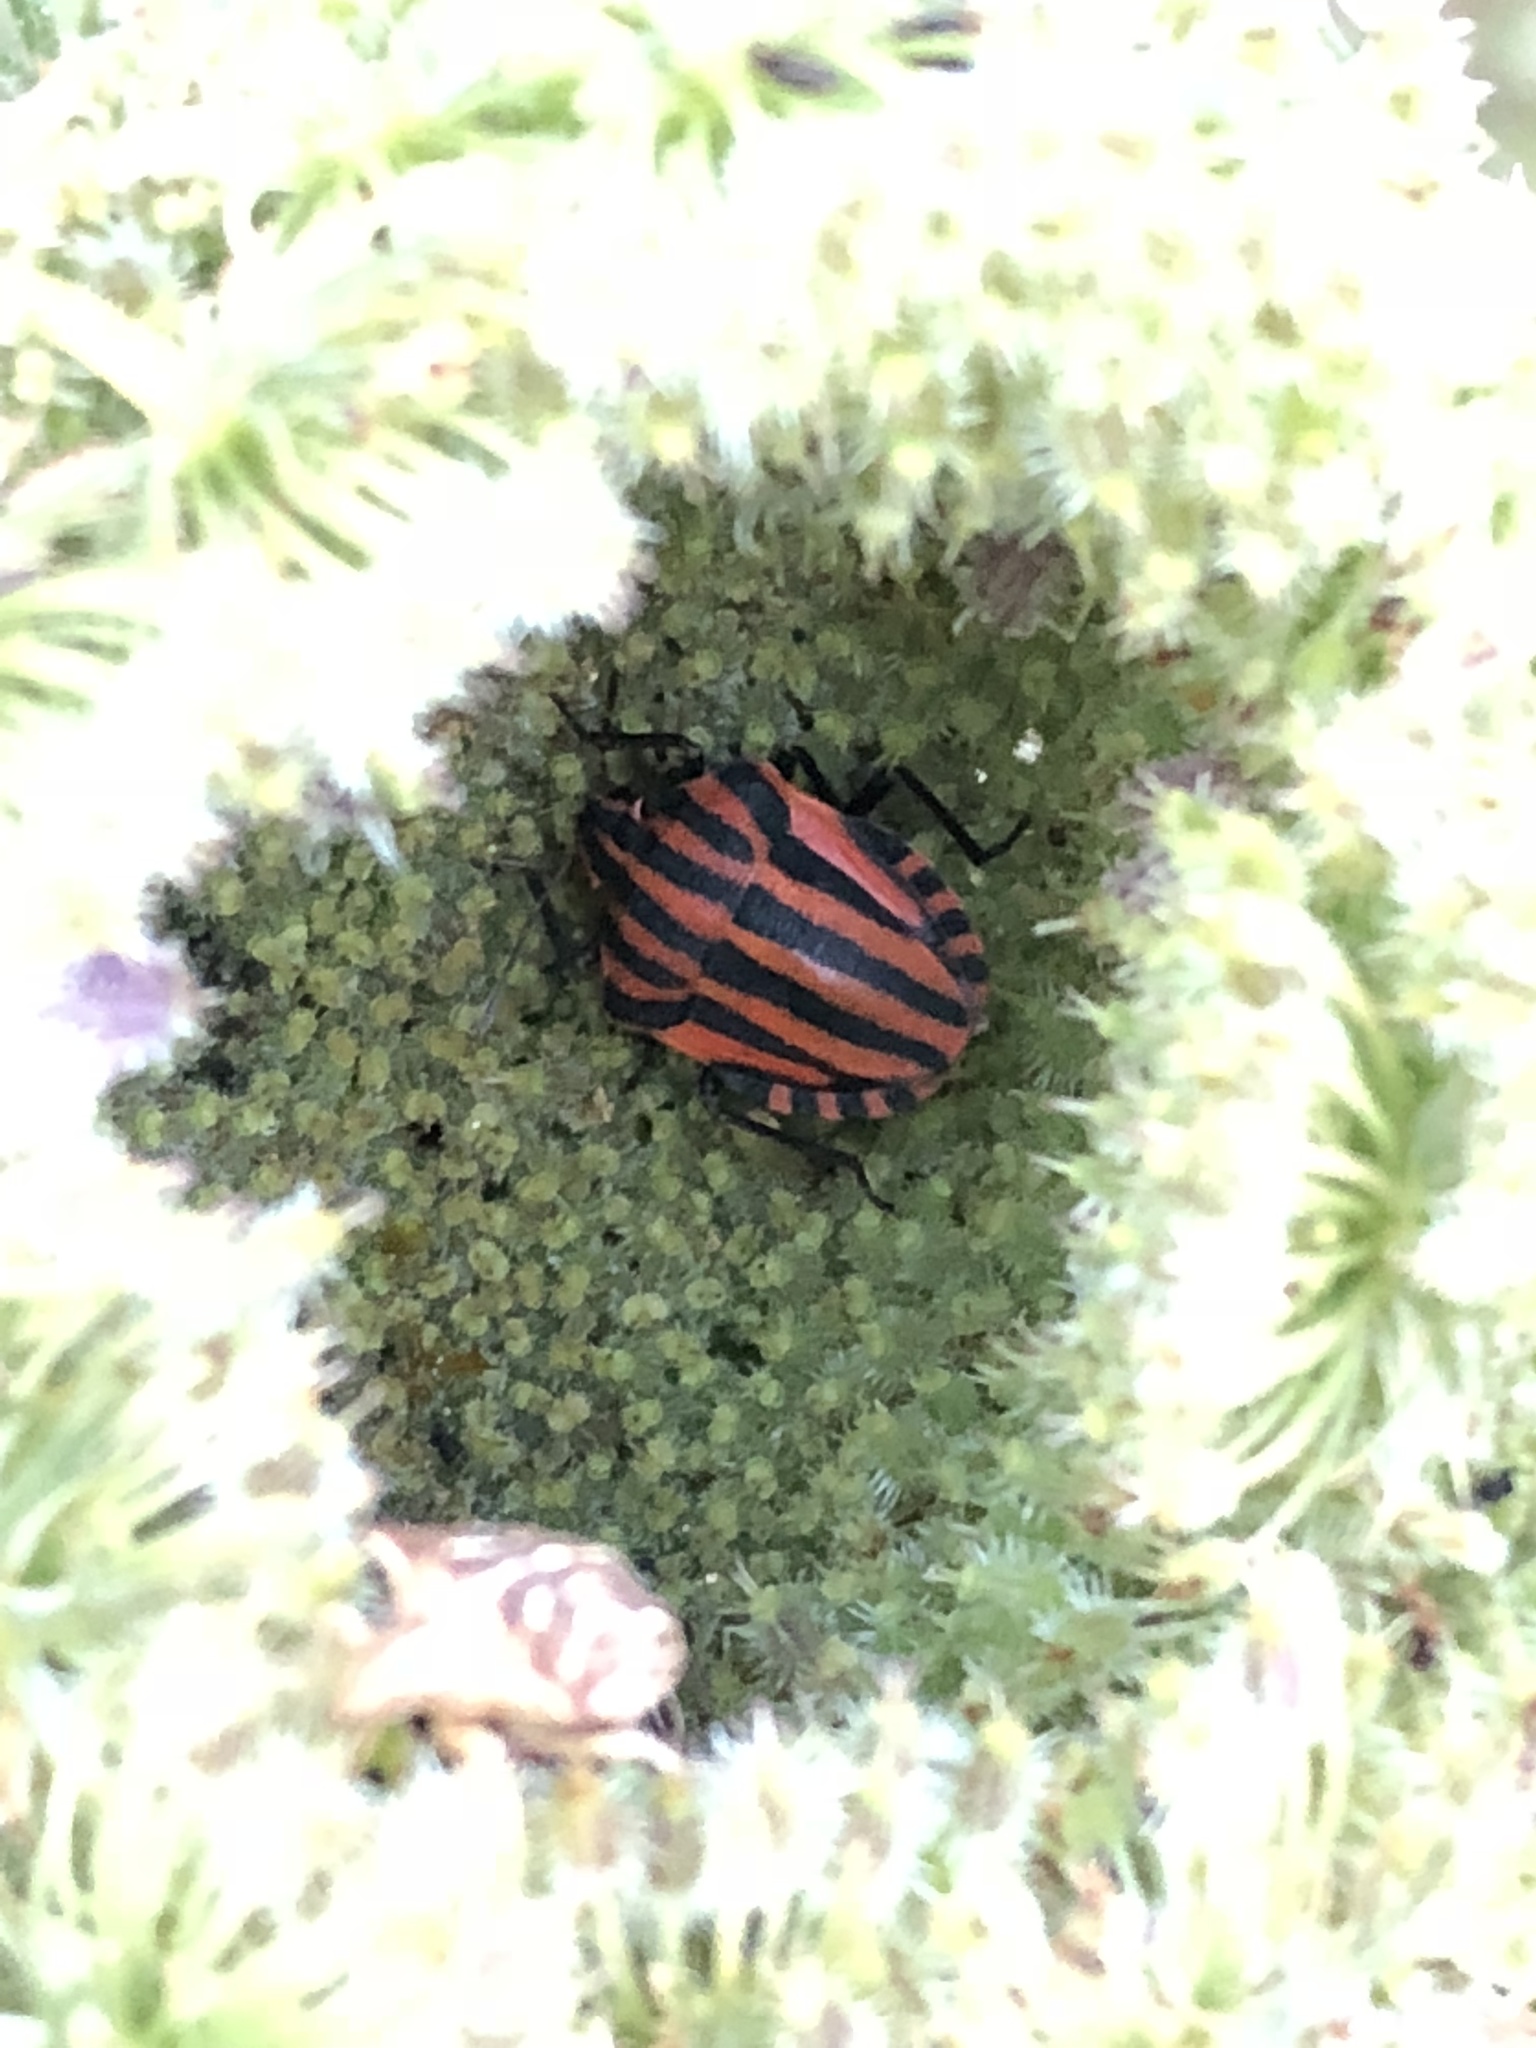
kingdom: Animalia
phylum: Arthropoda
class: Insecta
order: Hemiptera
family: Pentatomidae
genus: Graphosoma
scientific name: Graphosoma italicum
